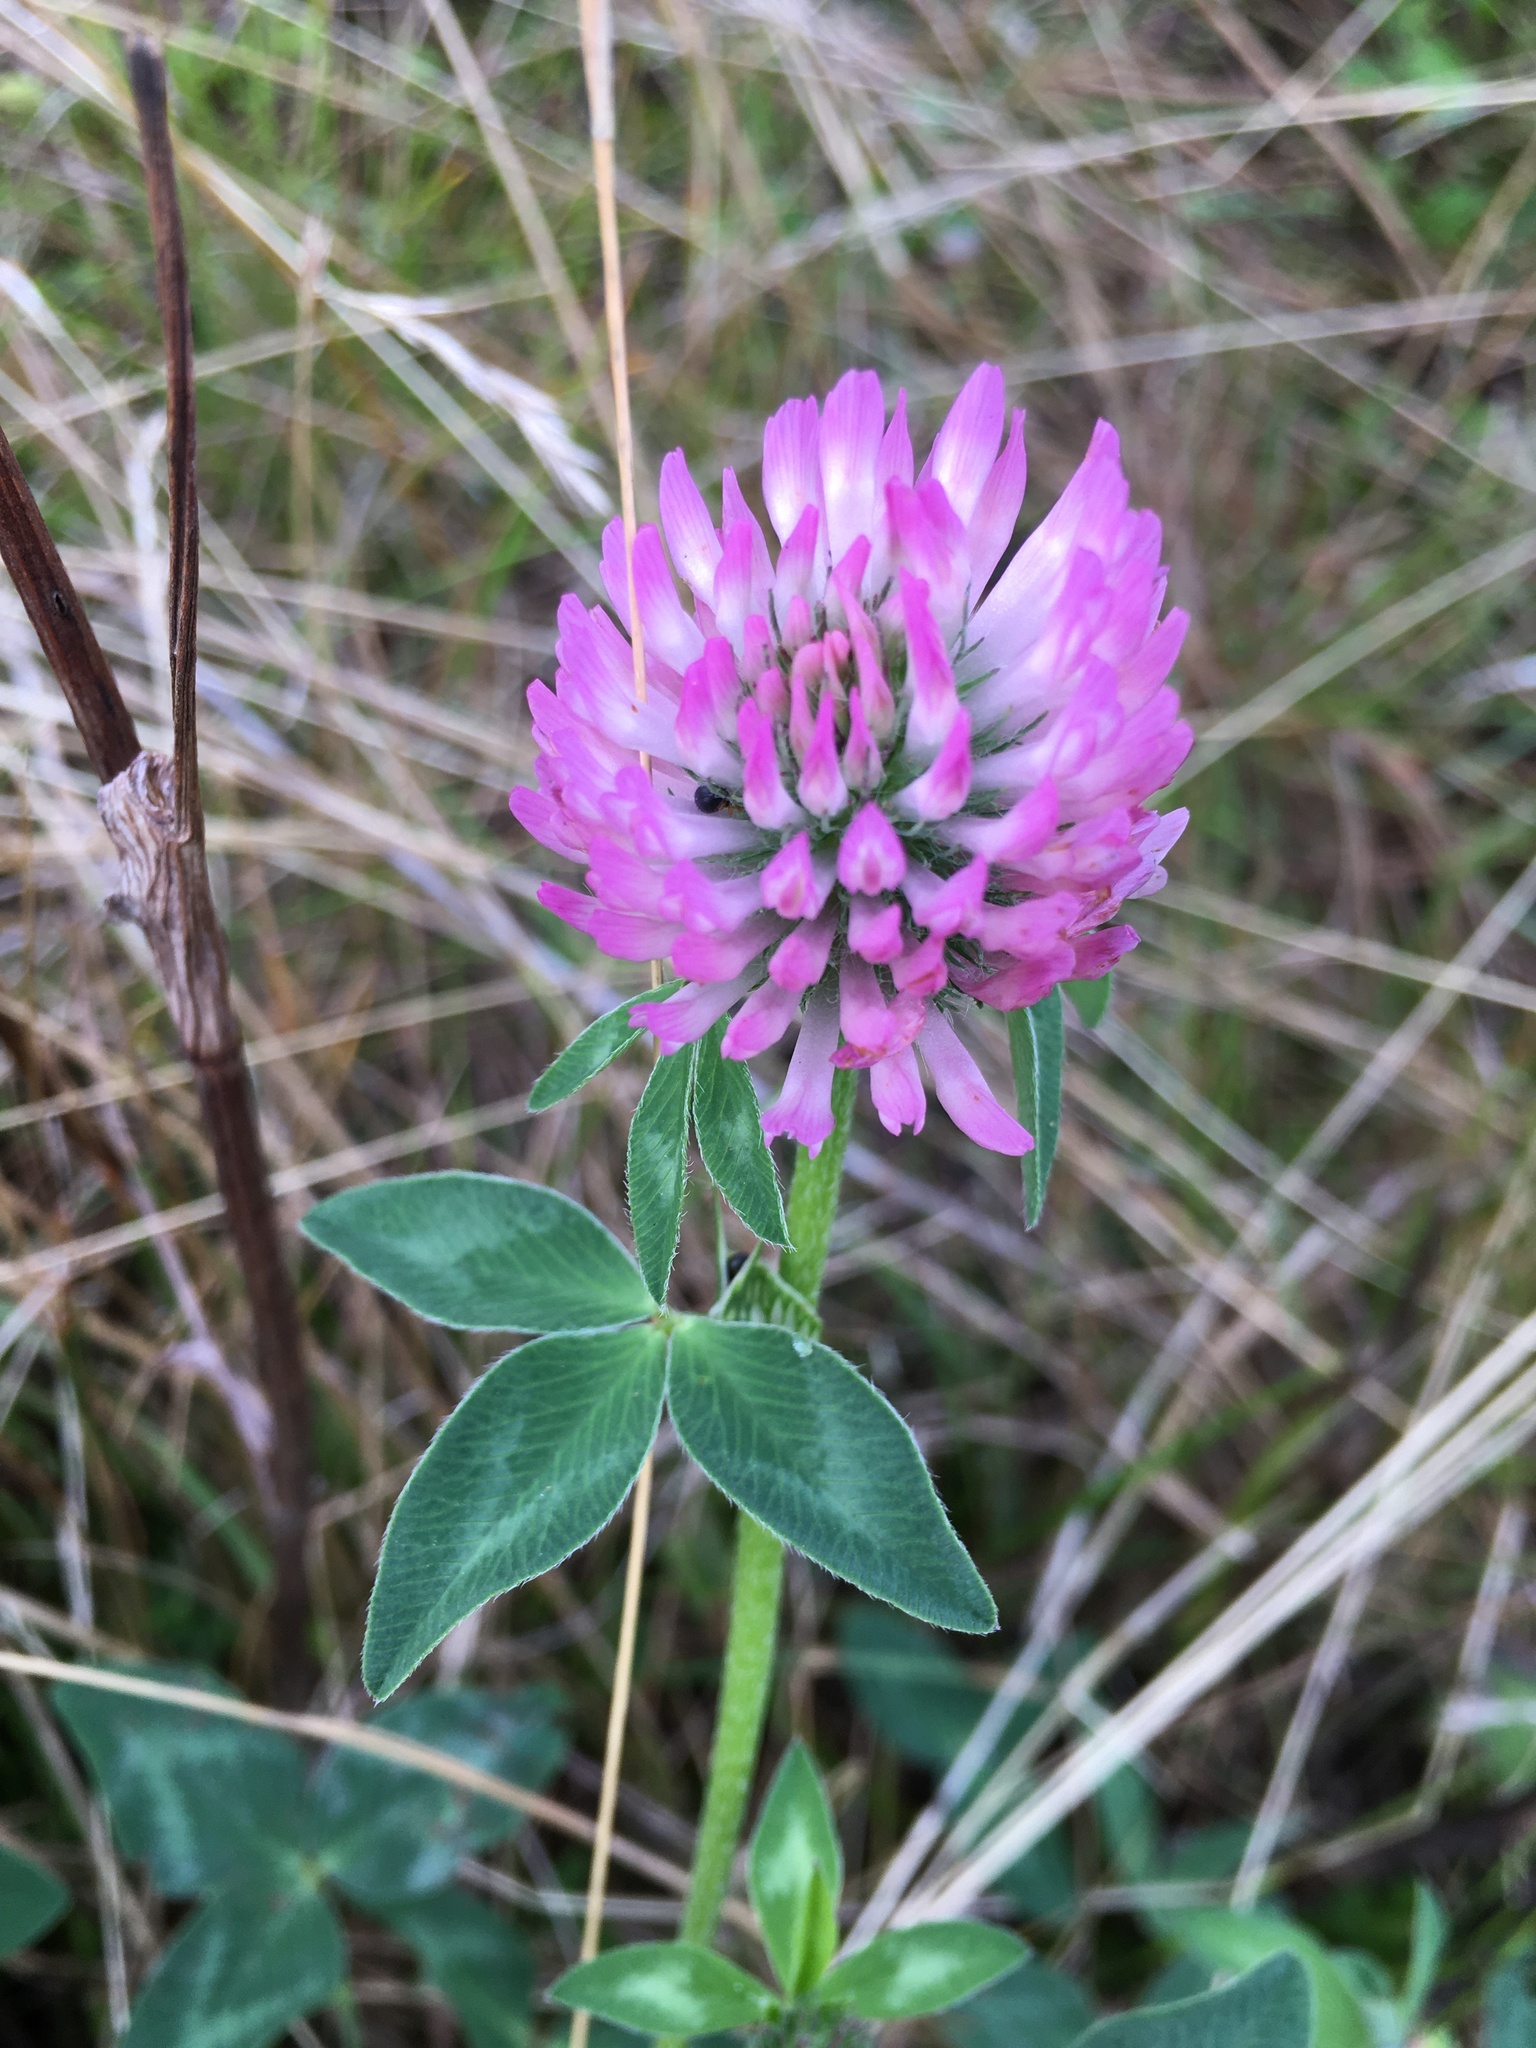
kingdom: Plantae
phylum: Tracheophyta
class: Magnoliopsida
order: Fabales
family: Fabaceae
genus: Trifolium
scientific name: Trifolium pratense
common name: Red clover
